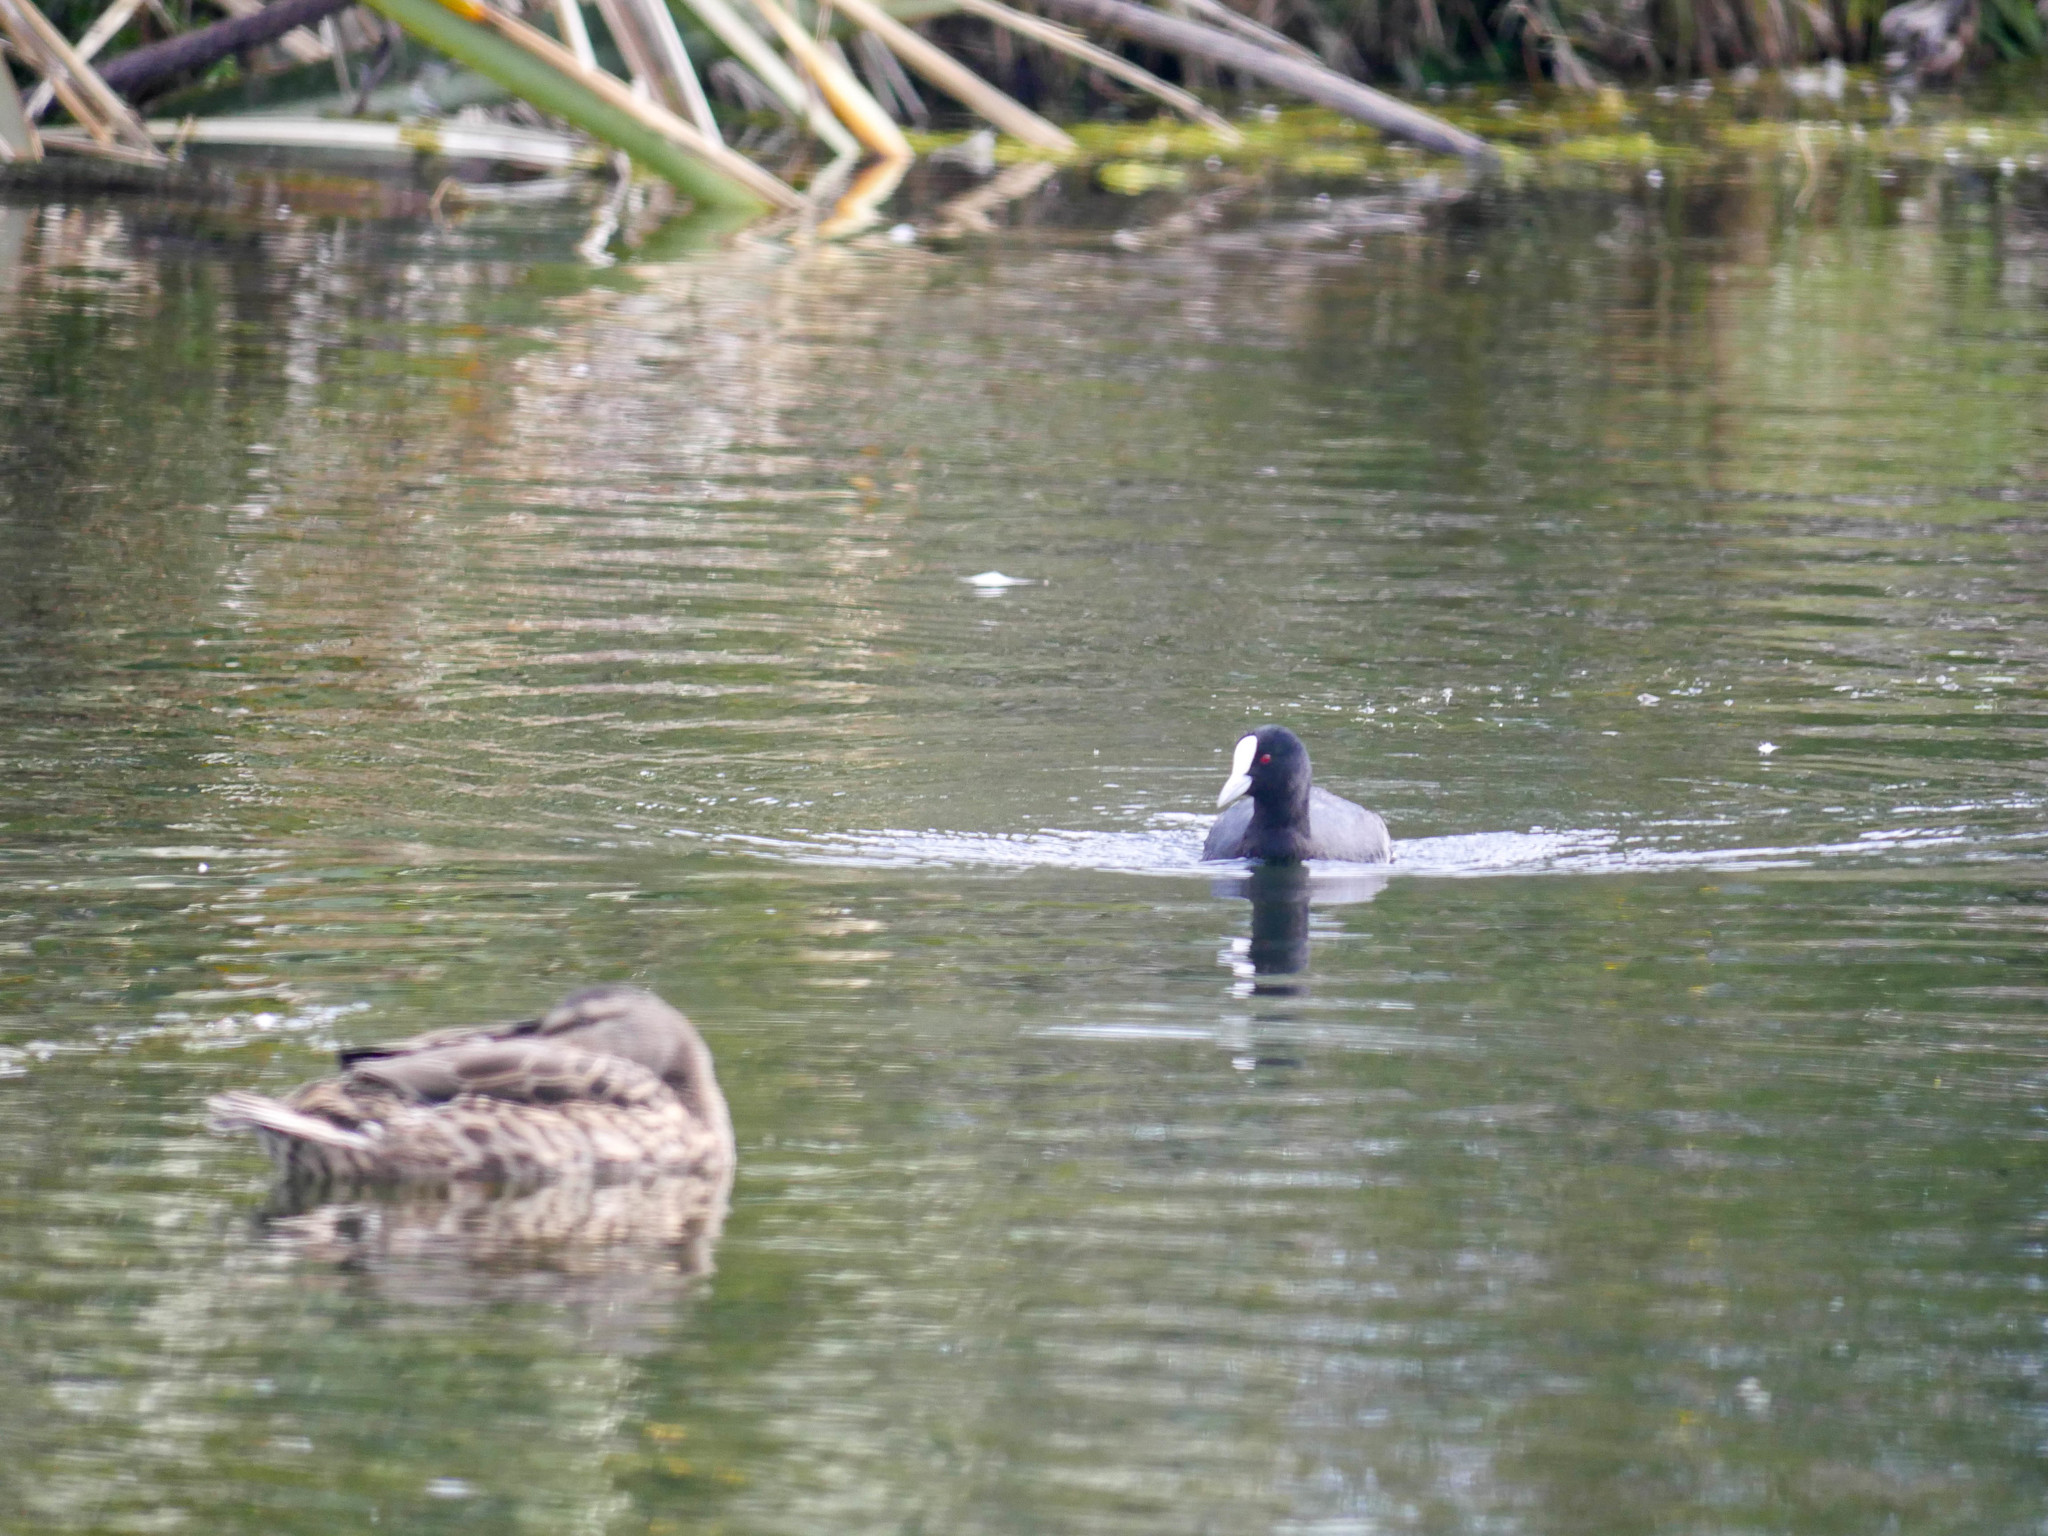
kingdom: Animalia
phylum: Chordata
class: Aves
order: Gruiformes
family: Rallidae
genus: Fulica
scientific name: Fulica atra
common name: Eurasian coot
